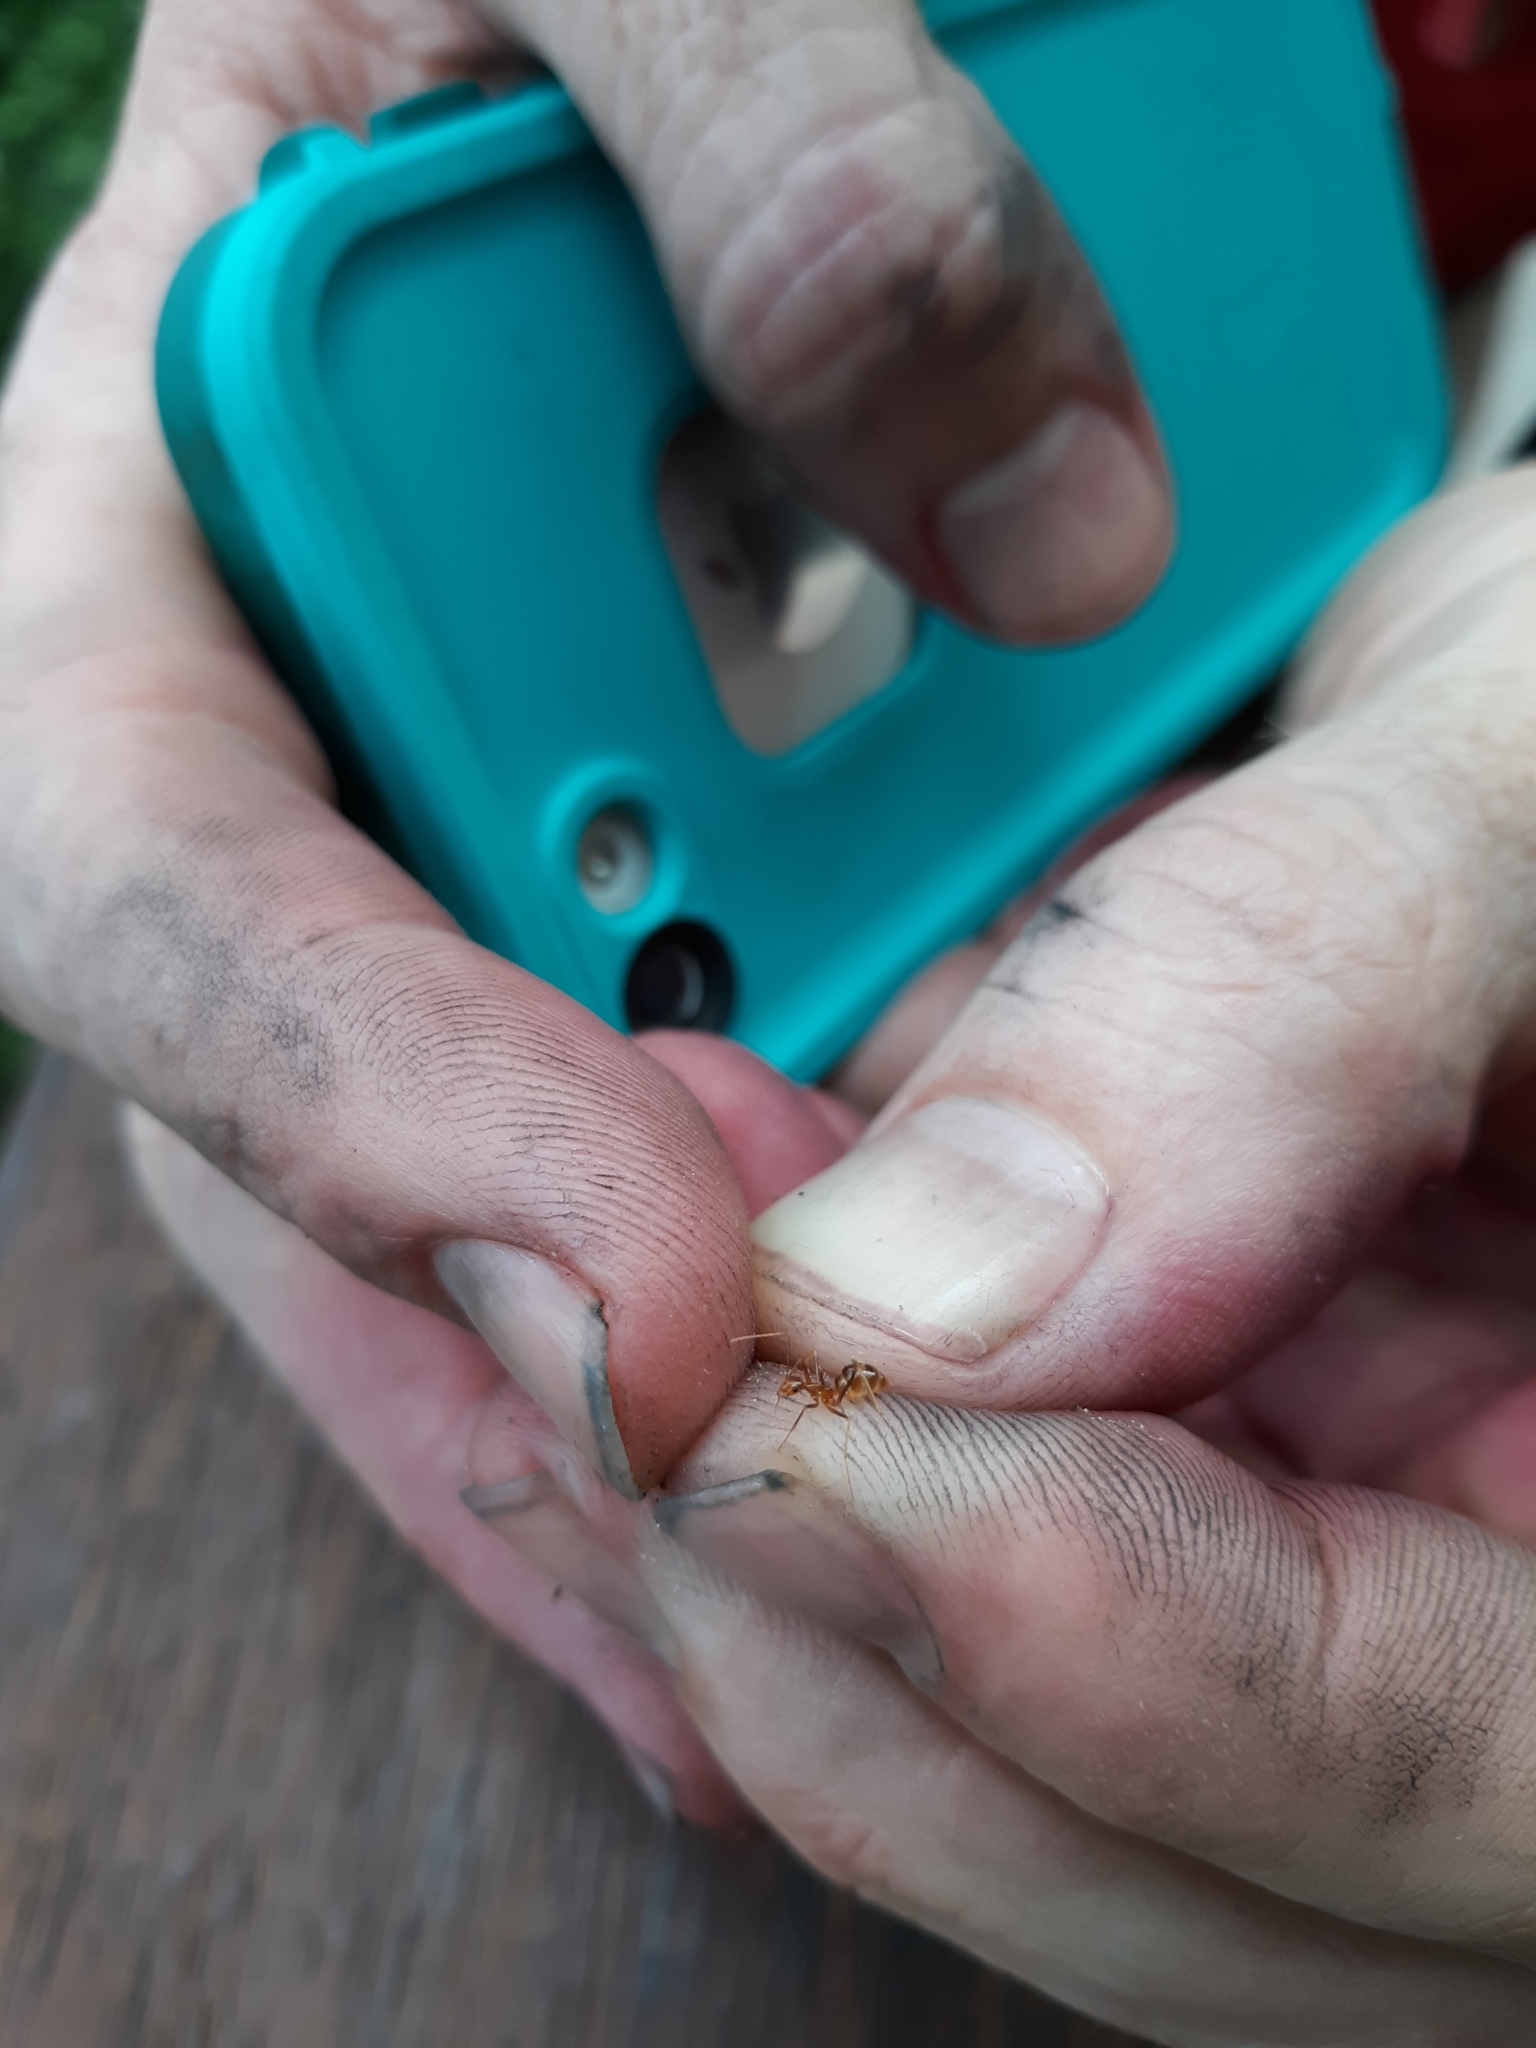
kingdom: Animalia
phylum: Arthropoda
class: Insecta
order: Hymenoptera
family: Formicidae
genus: Anoplolepis
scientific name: Anoplolepis gracilipes
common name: Ant
